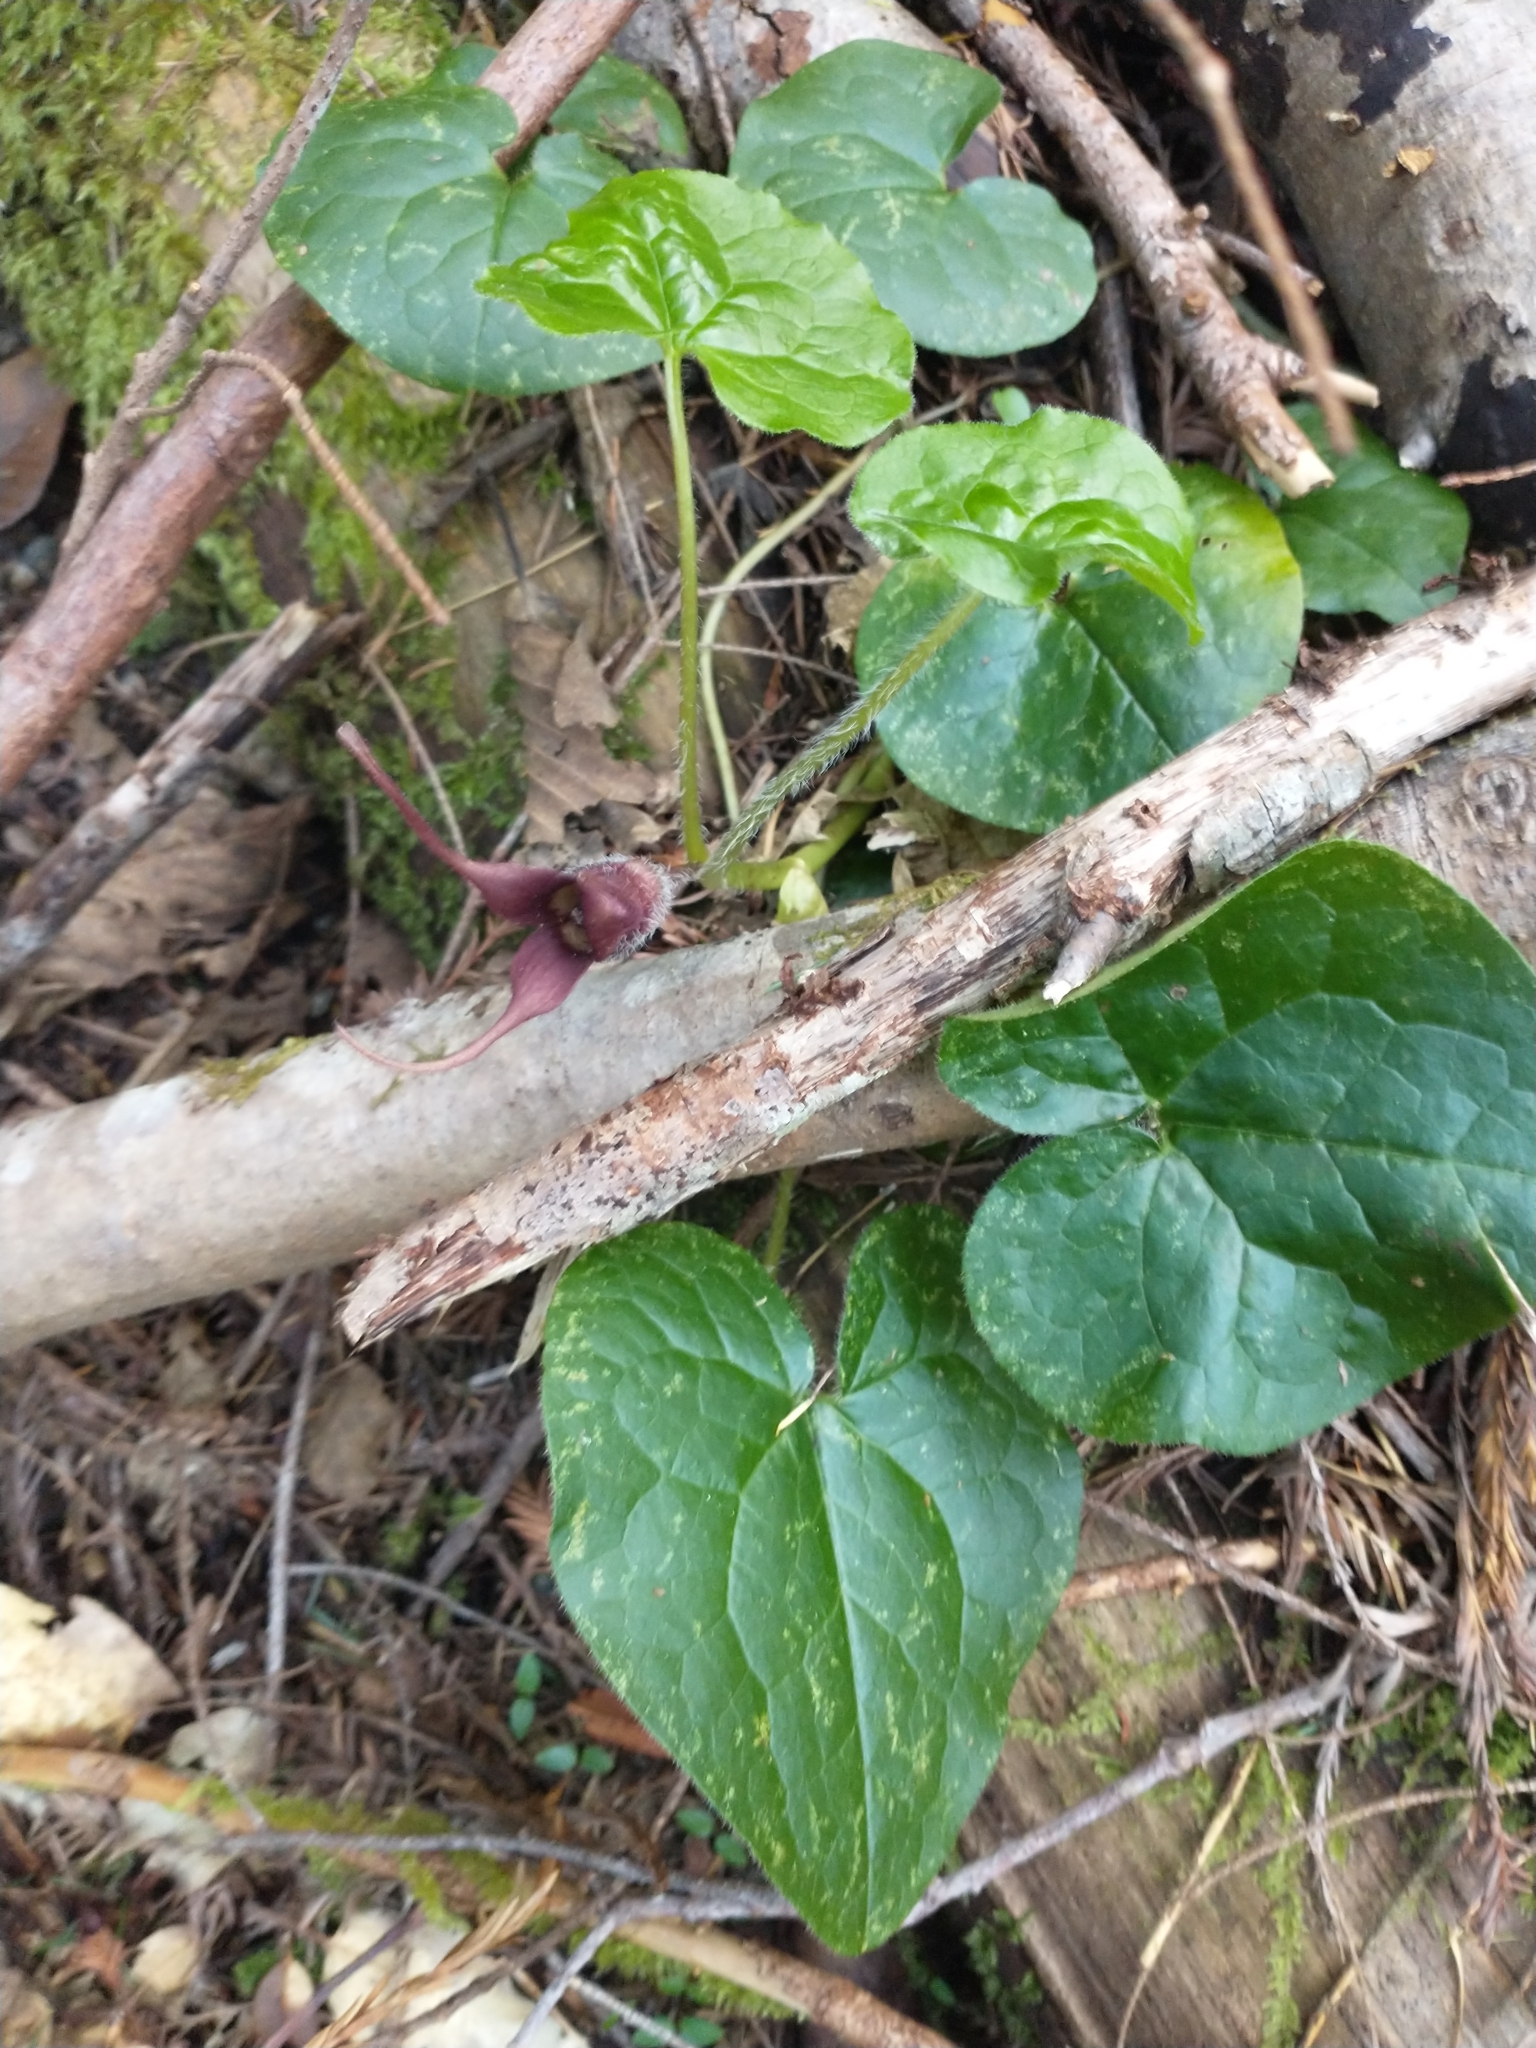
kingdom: Plantae
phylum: Tracheophyta
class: Magnoliopsida
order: Piperales
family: Aristolochiaceae
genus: Asarum
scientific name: Asarum caudatum
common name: Wild ginger
